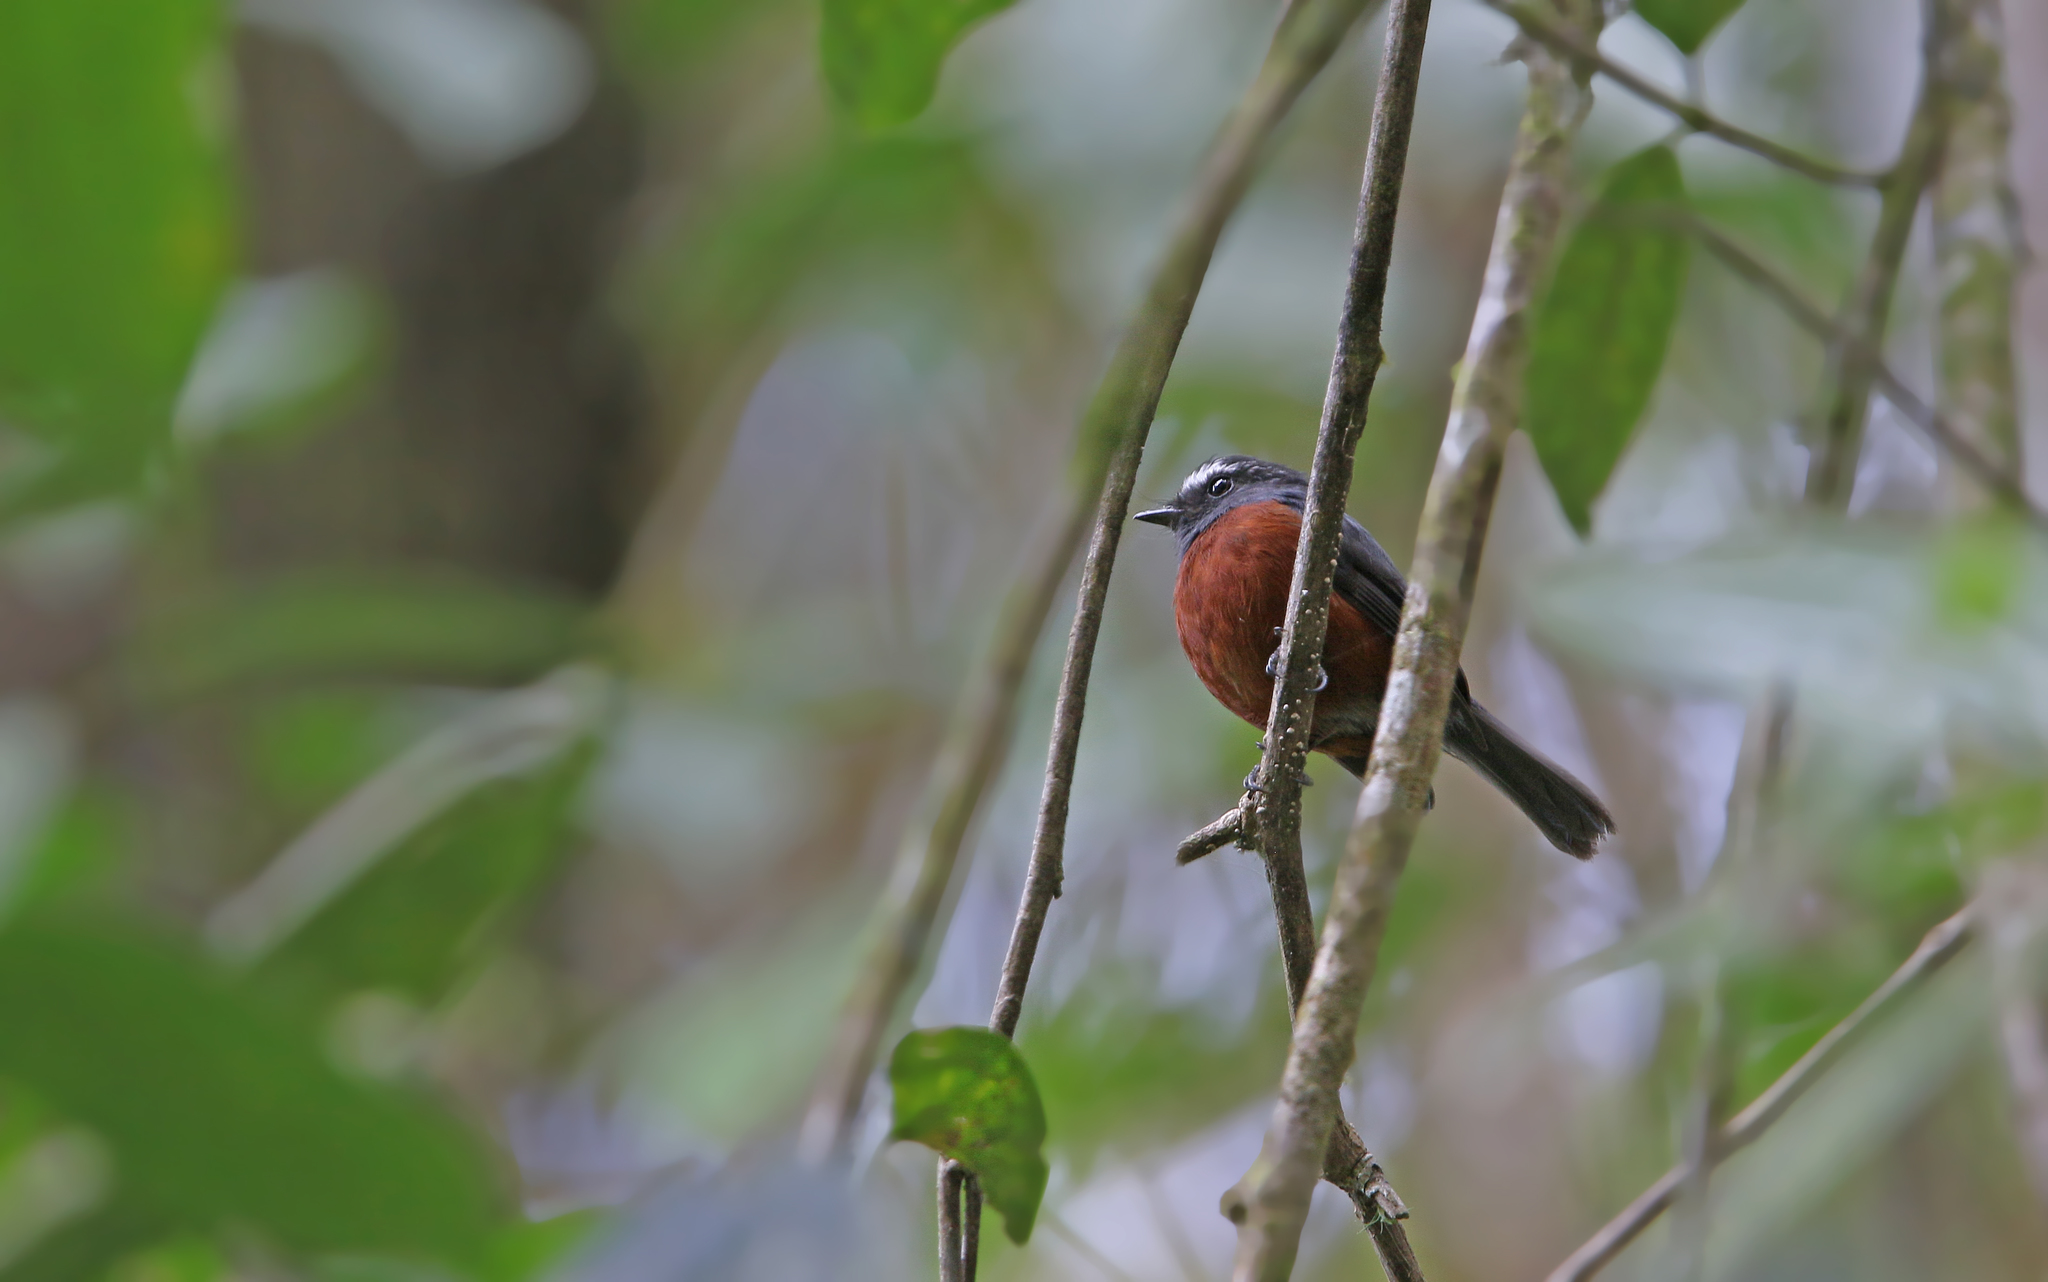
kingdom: Animalia
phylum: Chordata
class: Aves
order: Passeriformes
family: Tyrannidae
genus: Ochthoeca
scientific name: Ochthoeca cinnamomeiventris
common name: Slaty-backed chat-tyrant
